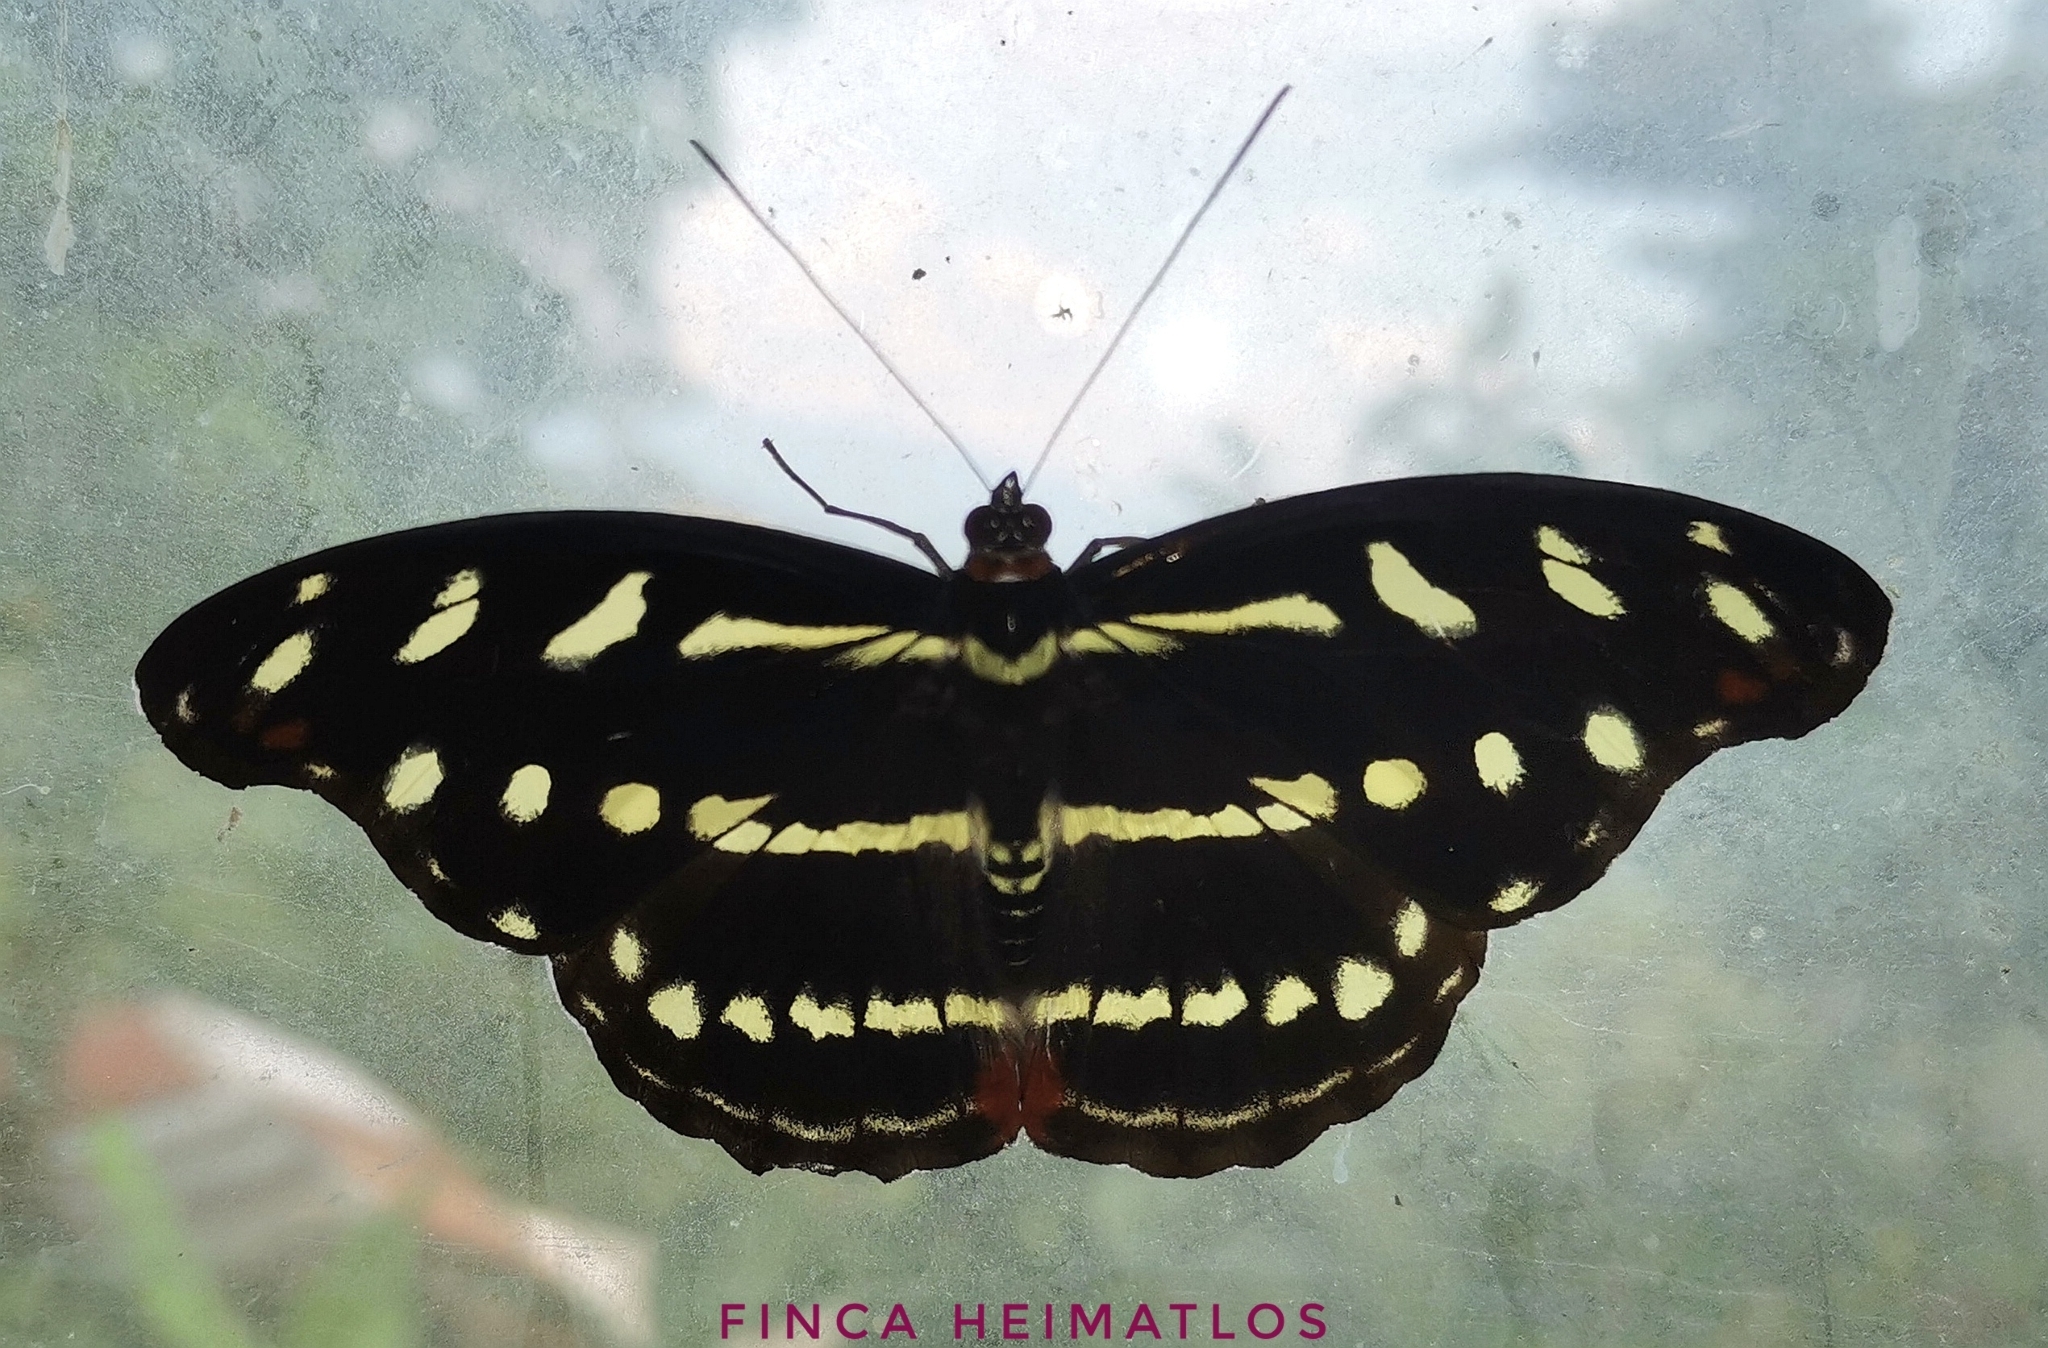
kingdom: Animalia
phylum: Arthropoda
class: Insecta
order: Lepidoptera
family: Nymphalidae
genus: Catonephele
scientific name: Catonephele acontius
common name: Unspotted firewing
